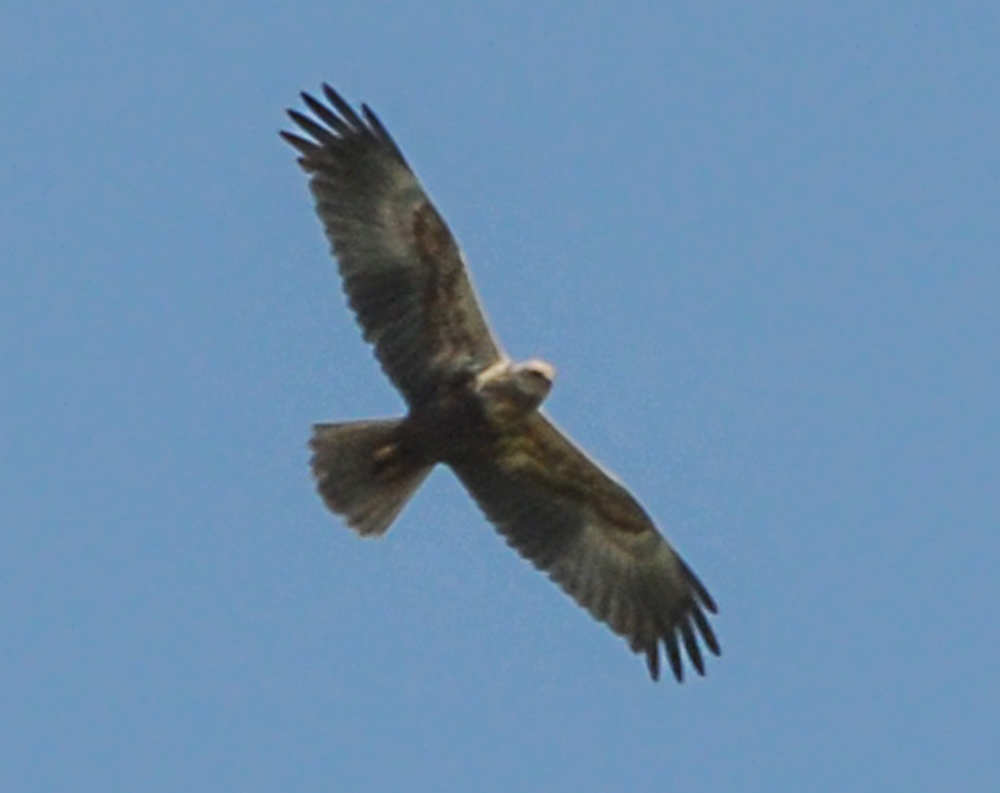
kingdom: Animalia
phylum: Chordata
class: Aves
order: Accipitriformes
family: Accipitridae
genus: Circus
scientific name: Circus aeruginosus
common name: Western marsh harrier
